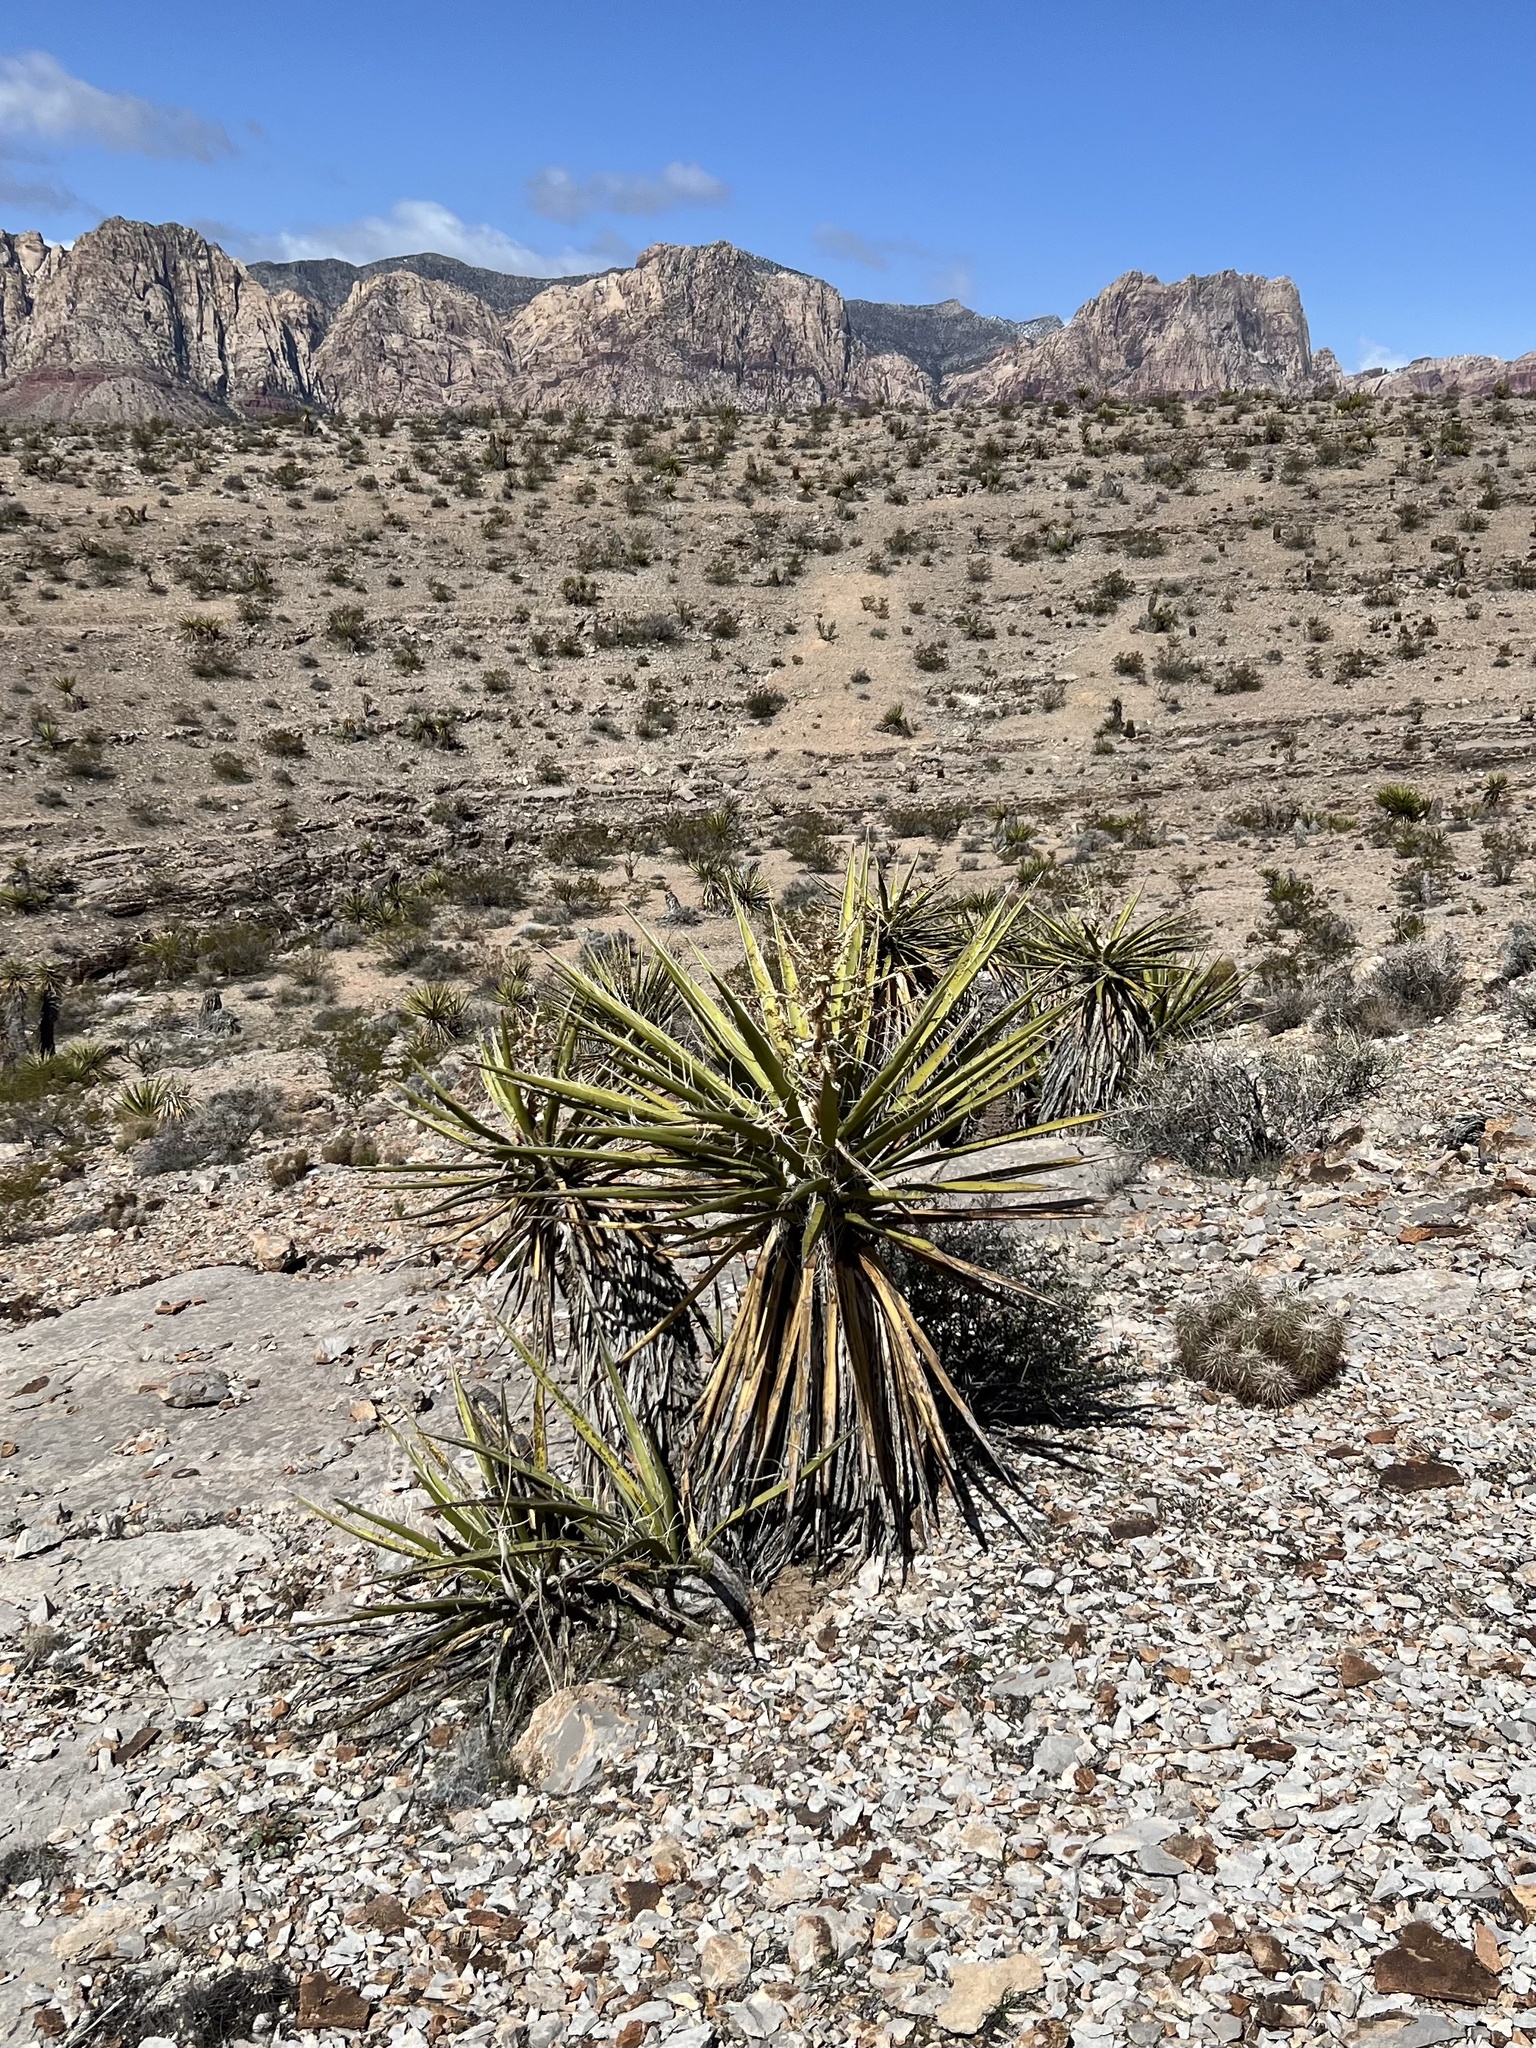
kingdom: Plantae
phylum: Tracheophyta
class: Liliopsida
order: Asparagales
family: Asparagaceae
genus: Yucca
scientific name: Yucca schidigera
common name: Mojave yucca
